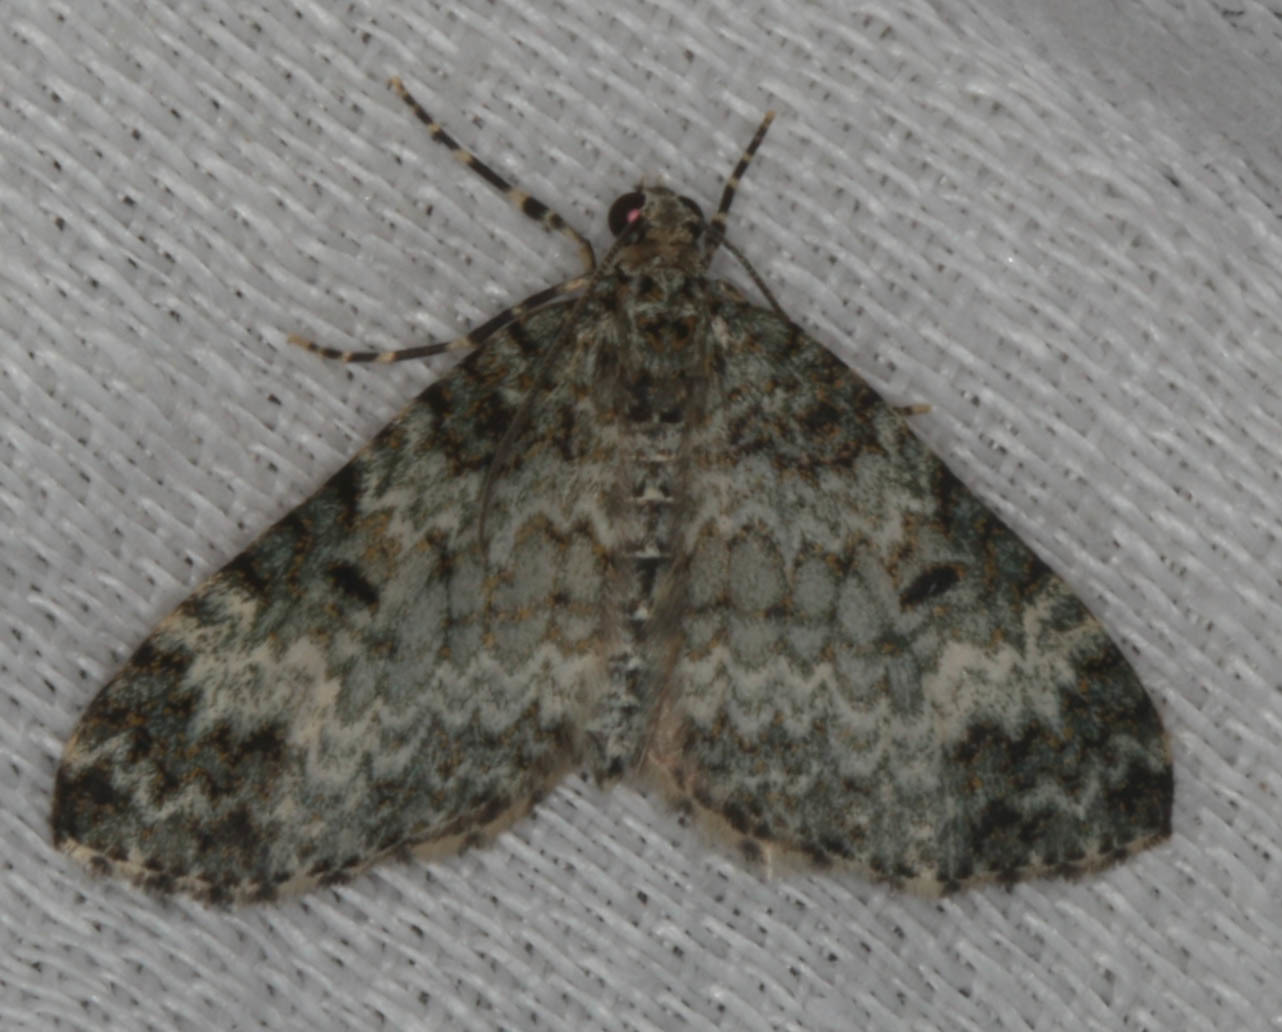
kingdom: Animalia
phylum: Arthropoda
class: Insecta
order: Lepidoptera
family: Geometridae
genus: Spargania
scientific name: Spargania magnoliata
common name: Double-banded carpet
